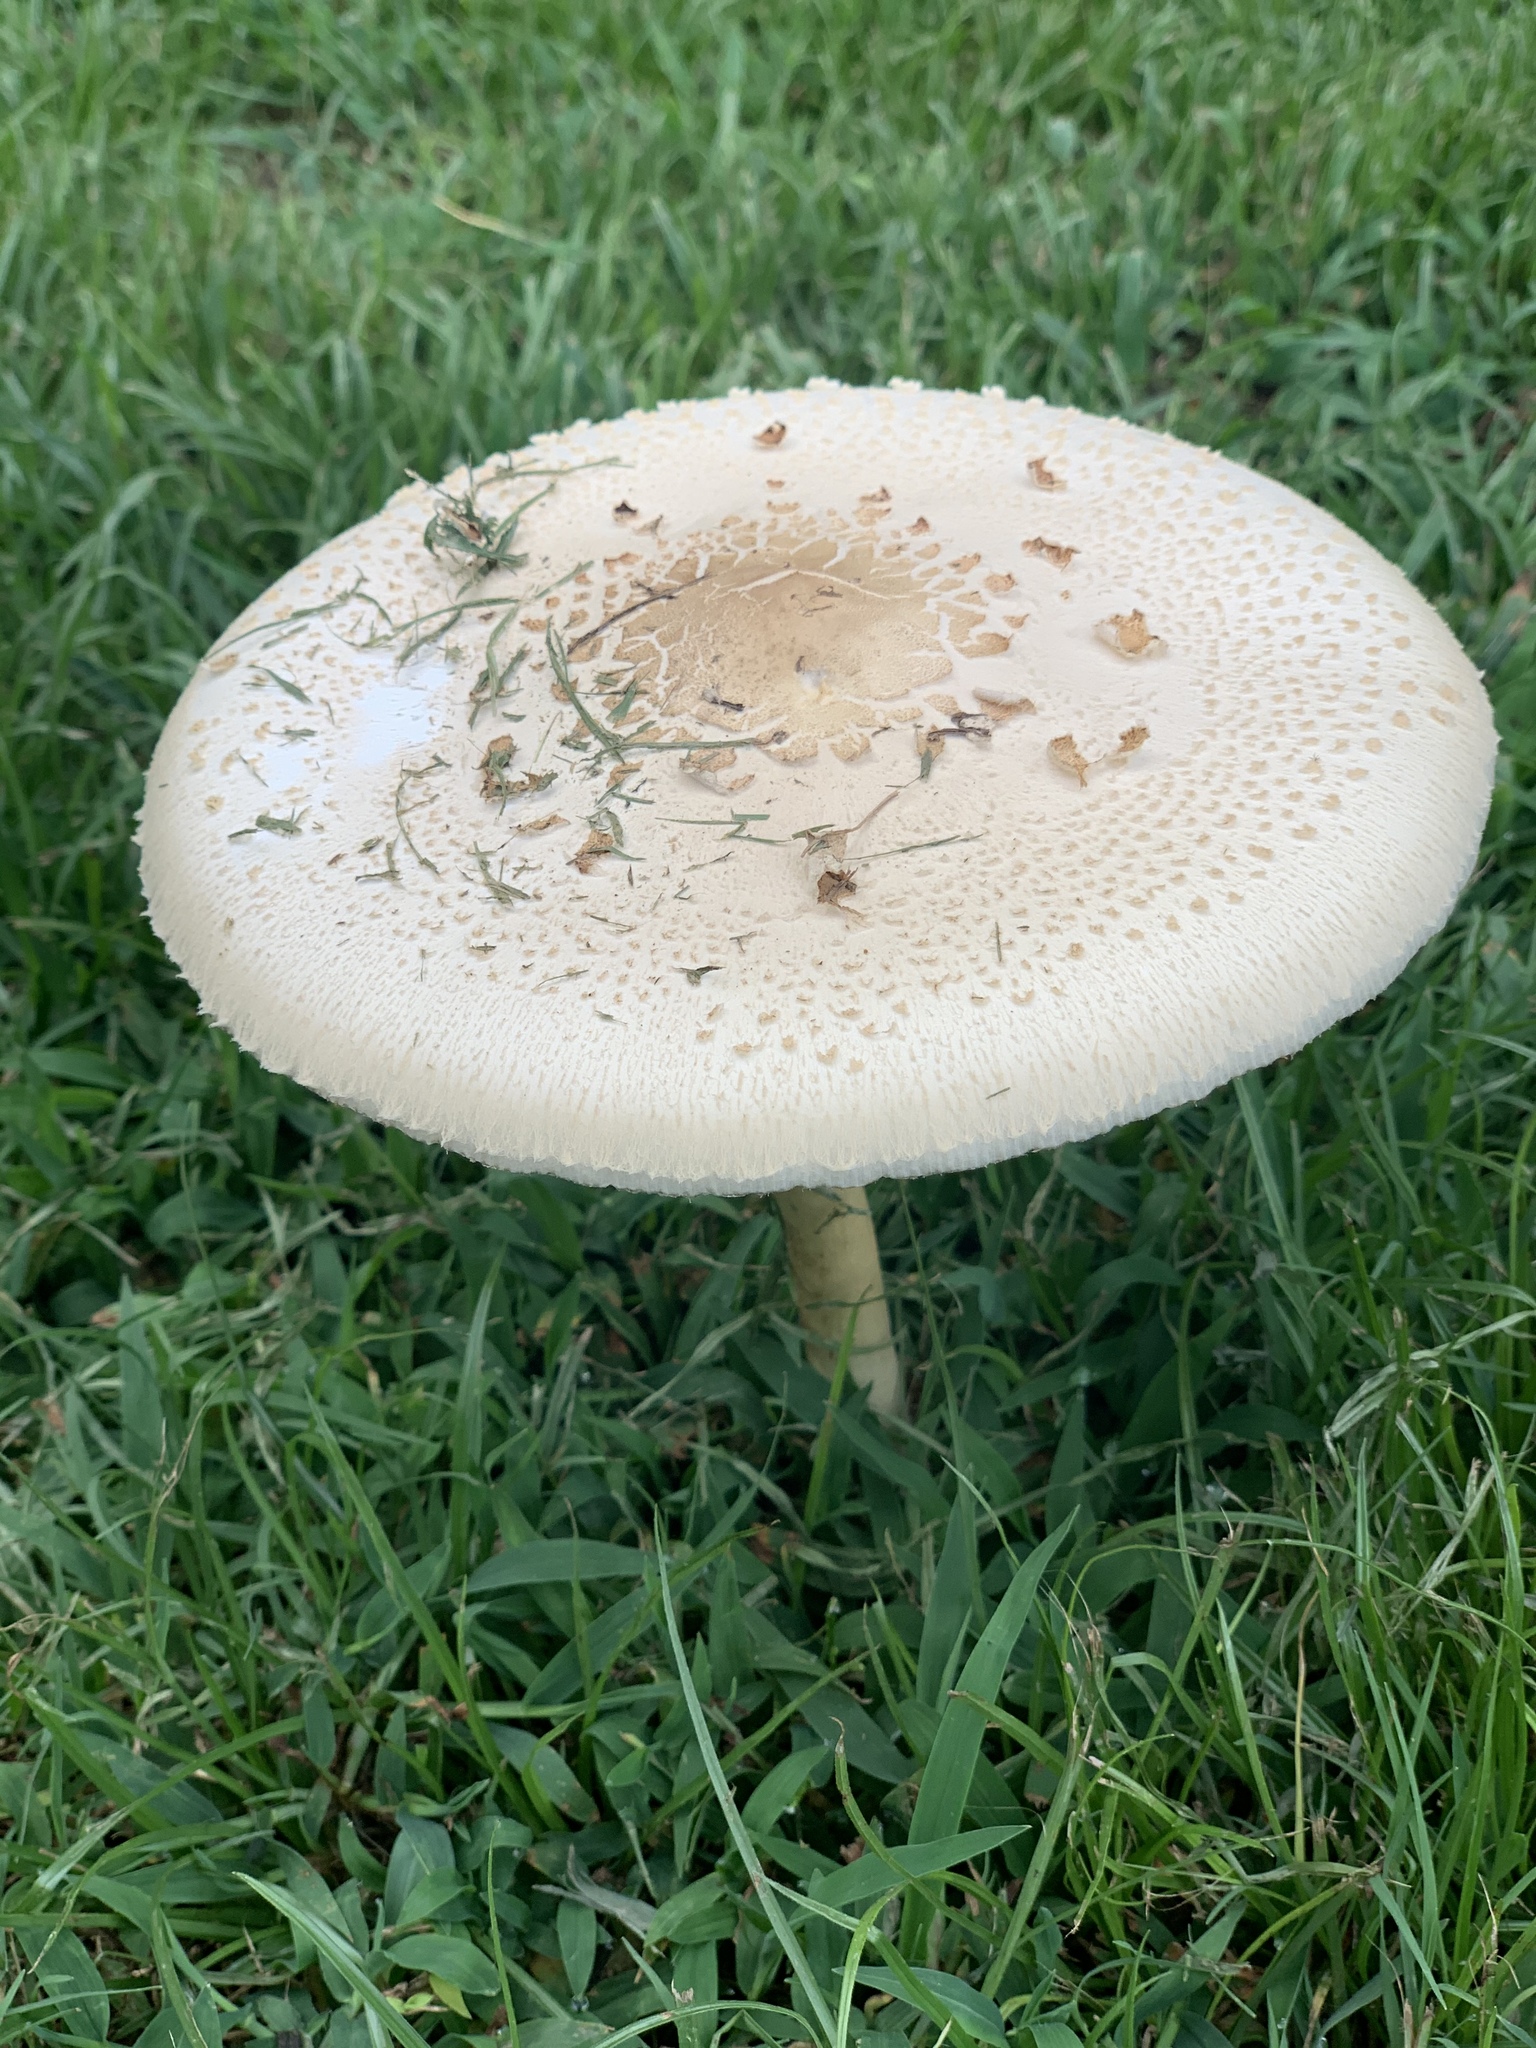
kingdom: Fungi
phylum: Basidiomycota
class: Agaricomycetes
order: Agaricales
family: Agaricaceae
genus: Chlorophyllum
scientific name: Chlorophyllum molybdites
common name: False parasol
